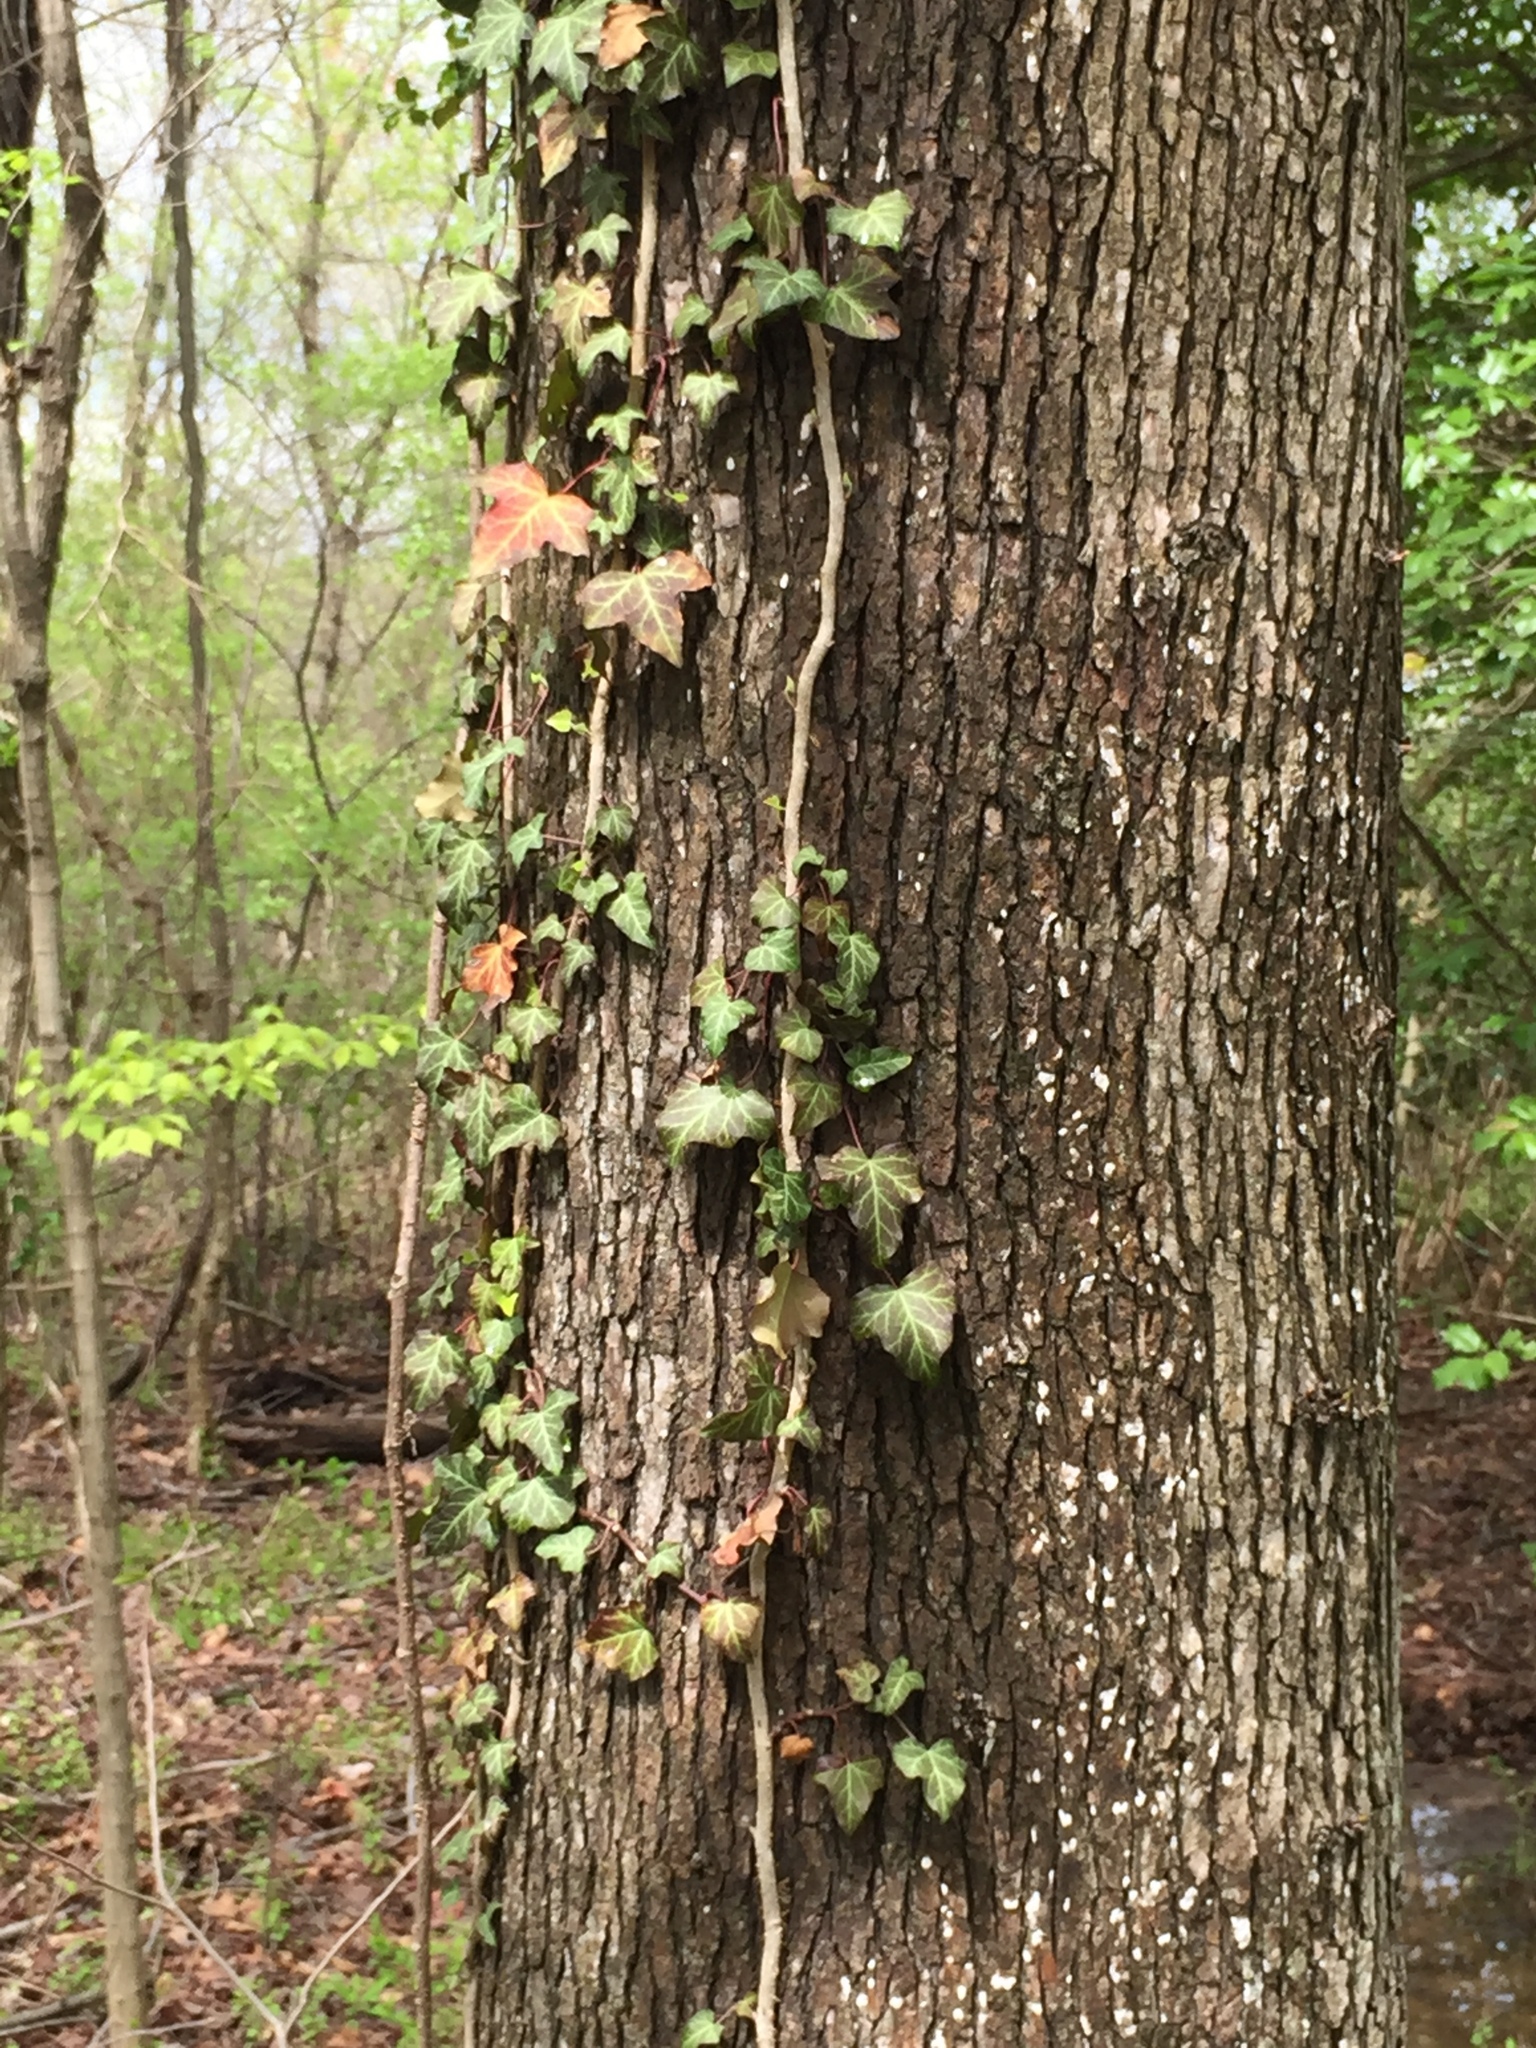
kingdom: Plantae
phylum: Tracheophyta
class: Magnoliopsida
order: Apiales
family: Araliaceae
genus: Hedera
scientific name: Hedera helix
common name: Ivy
